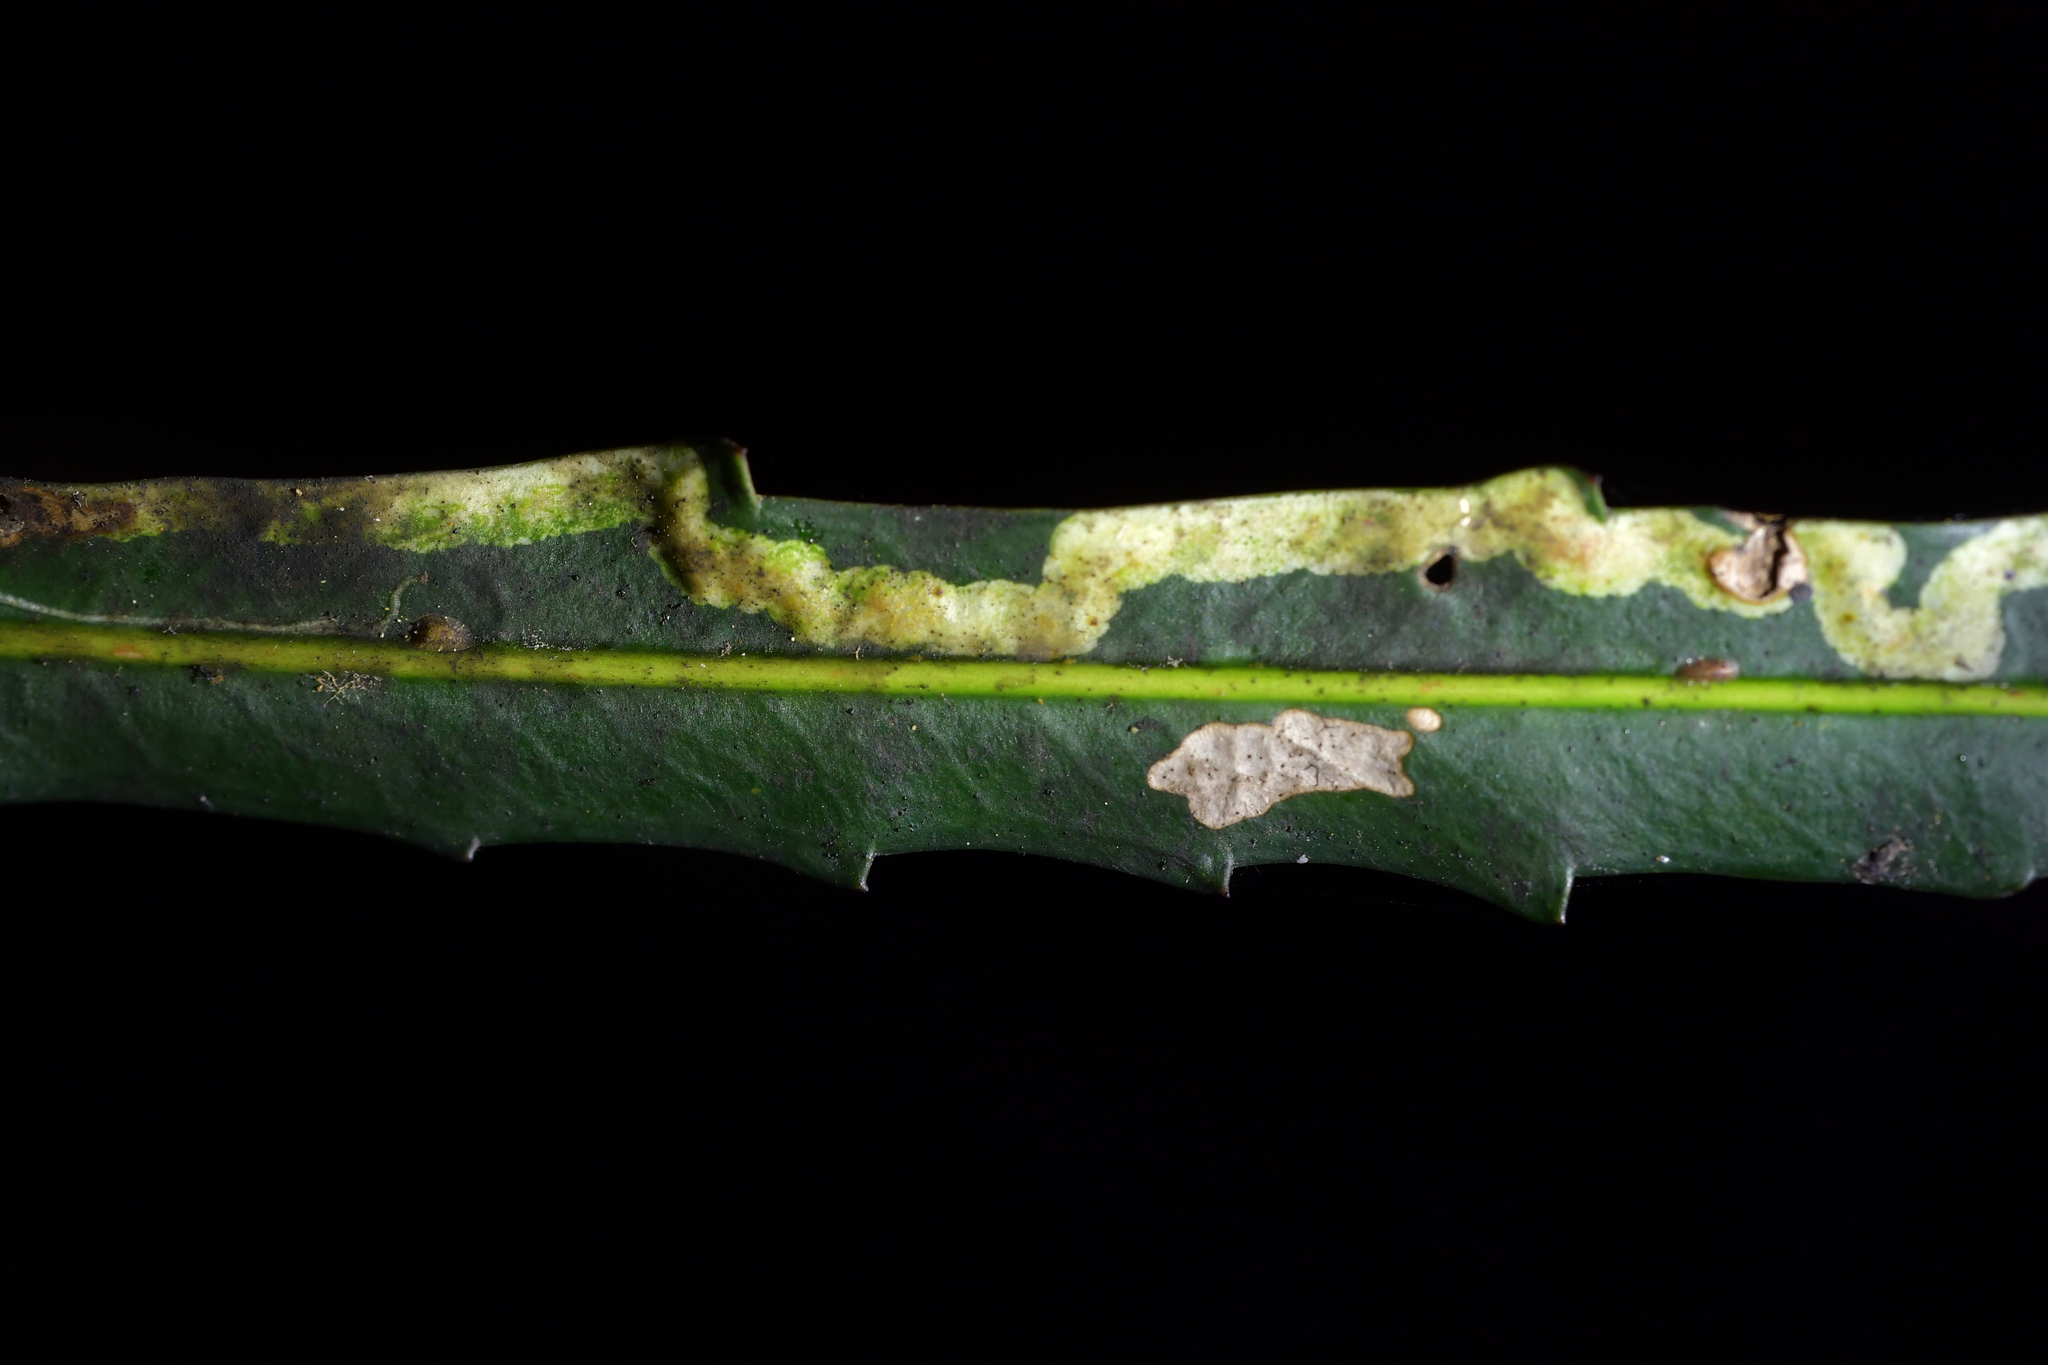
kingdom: Animalia
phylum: Arthropoda
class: Insecta
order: Lepidoptera
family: Gracillariidae
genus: Eumetriochroa
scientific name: Eumetriochroa panacivagans
